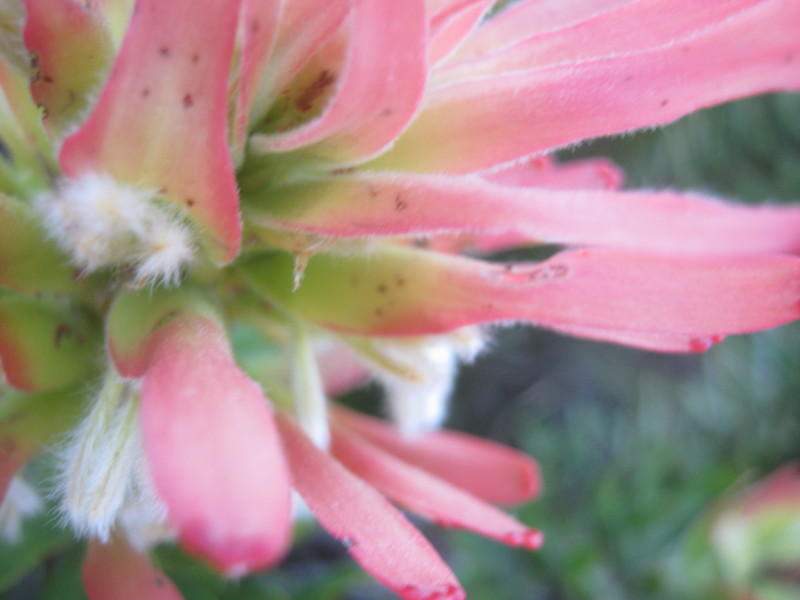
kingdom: Plantae
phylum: Tracheophyta
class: Magnoliopsida
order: Proteales
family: Proteaceae
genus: Mimetes
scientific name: Mimetes cucullatus
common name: Common pagoda
